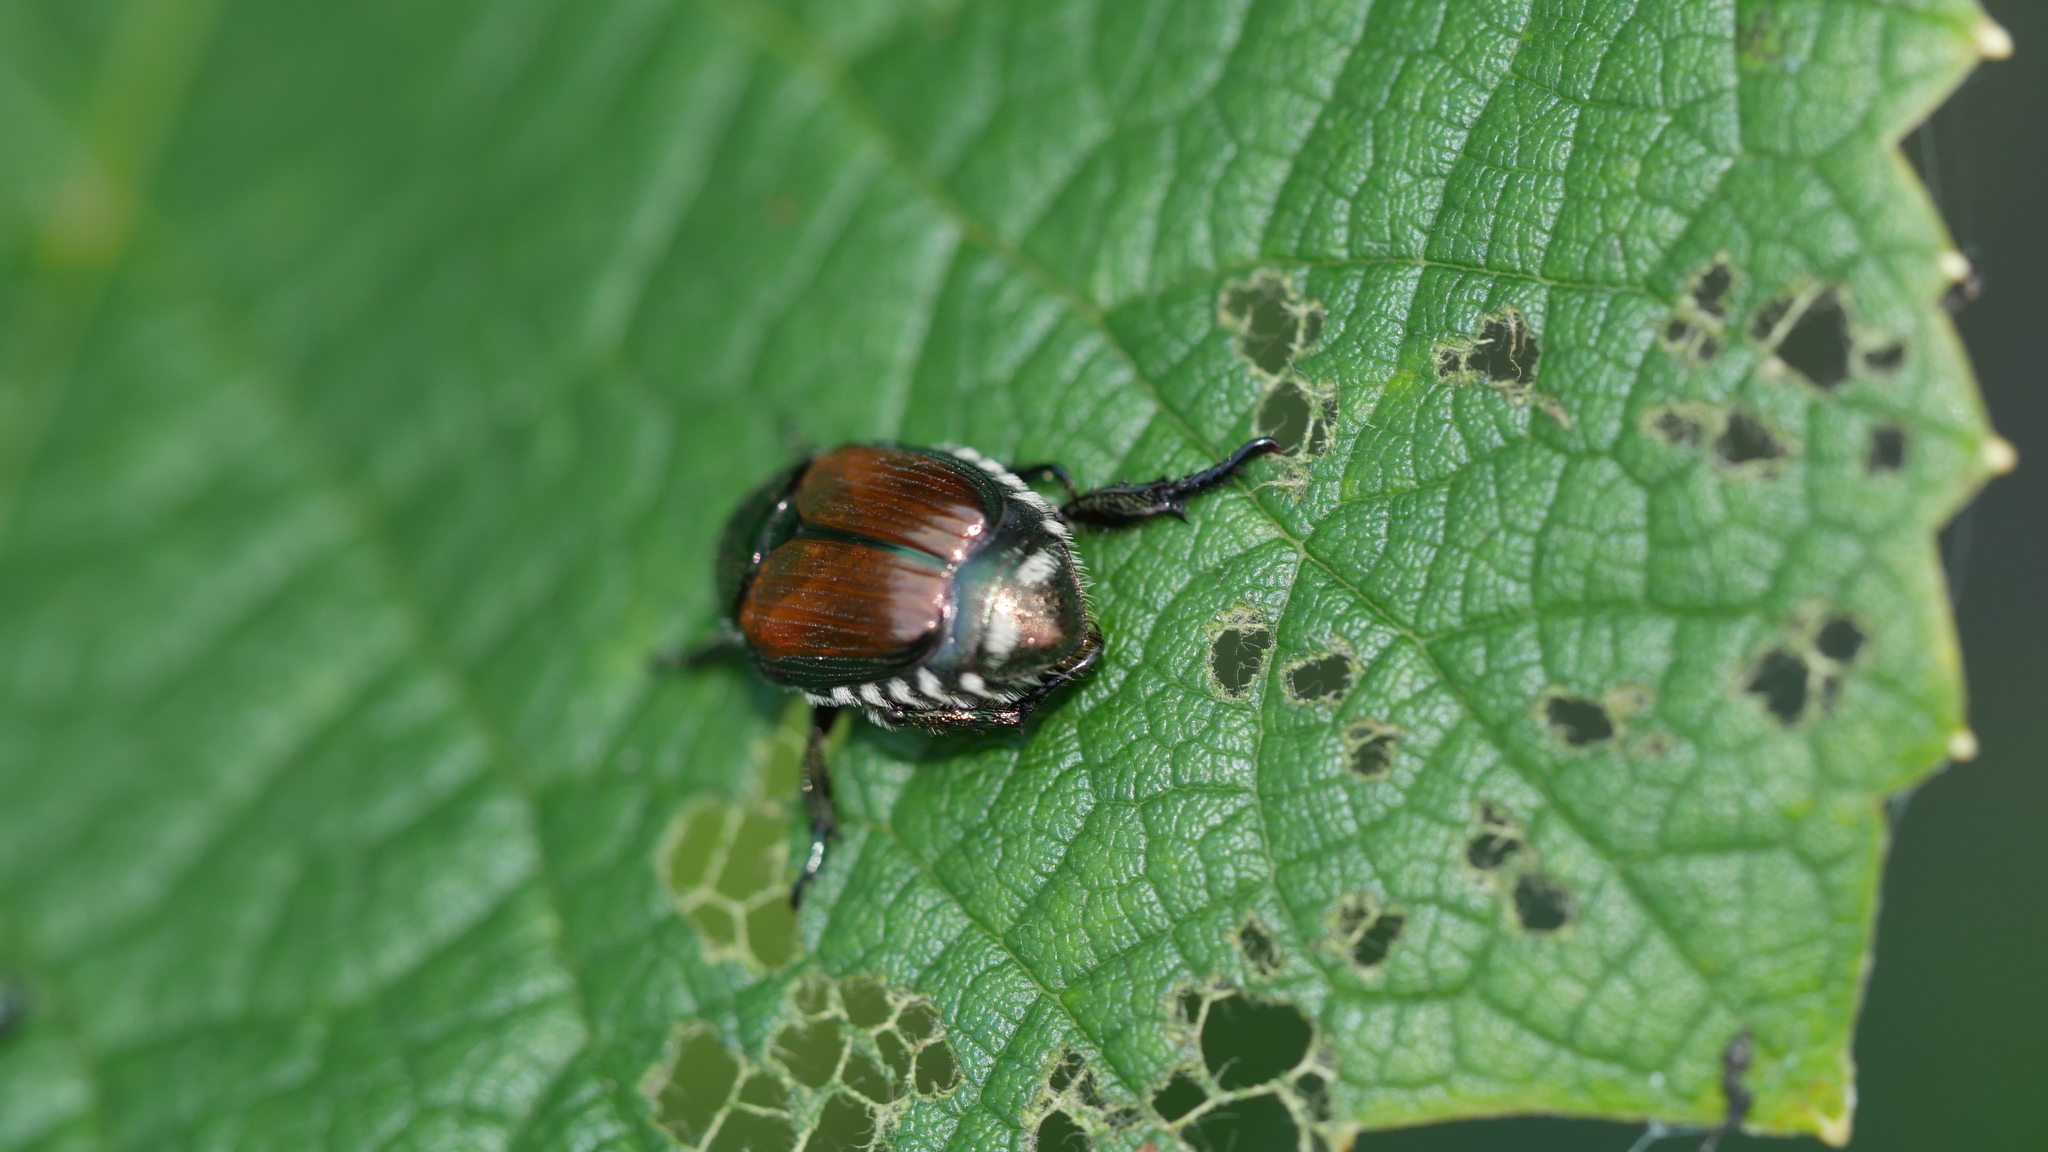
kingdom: Animalia
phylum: Arthropoda
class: Insecta
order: Coleoptera
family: Scarabaeidae
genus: Popillia
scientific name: Popillia japonica
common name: Japanese beetle
